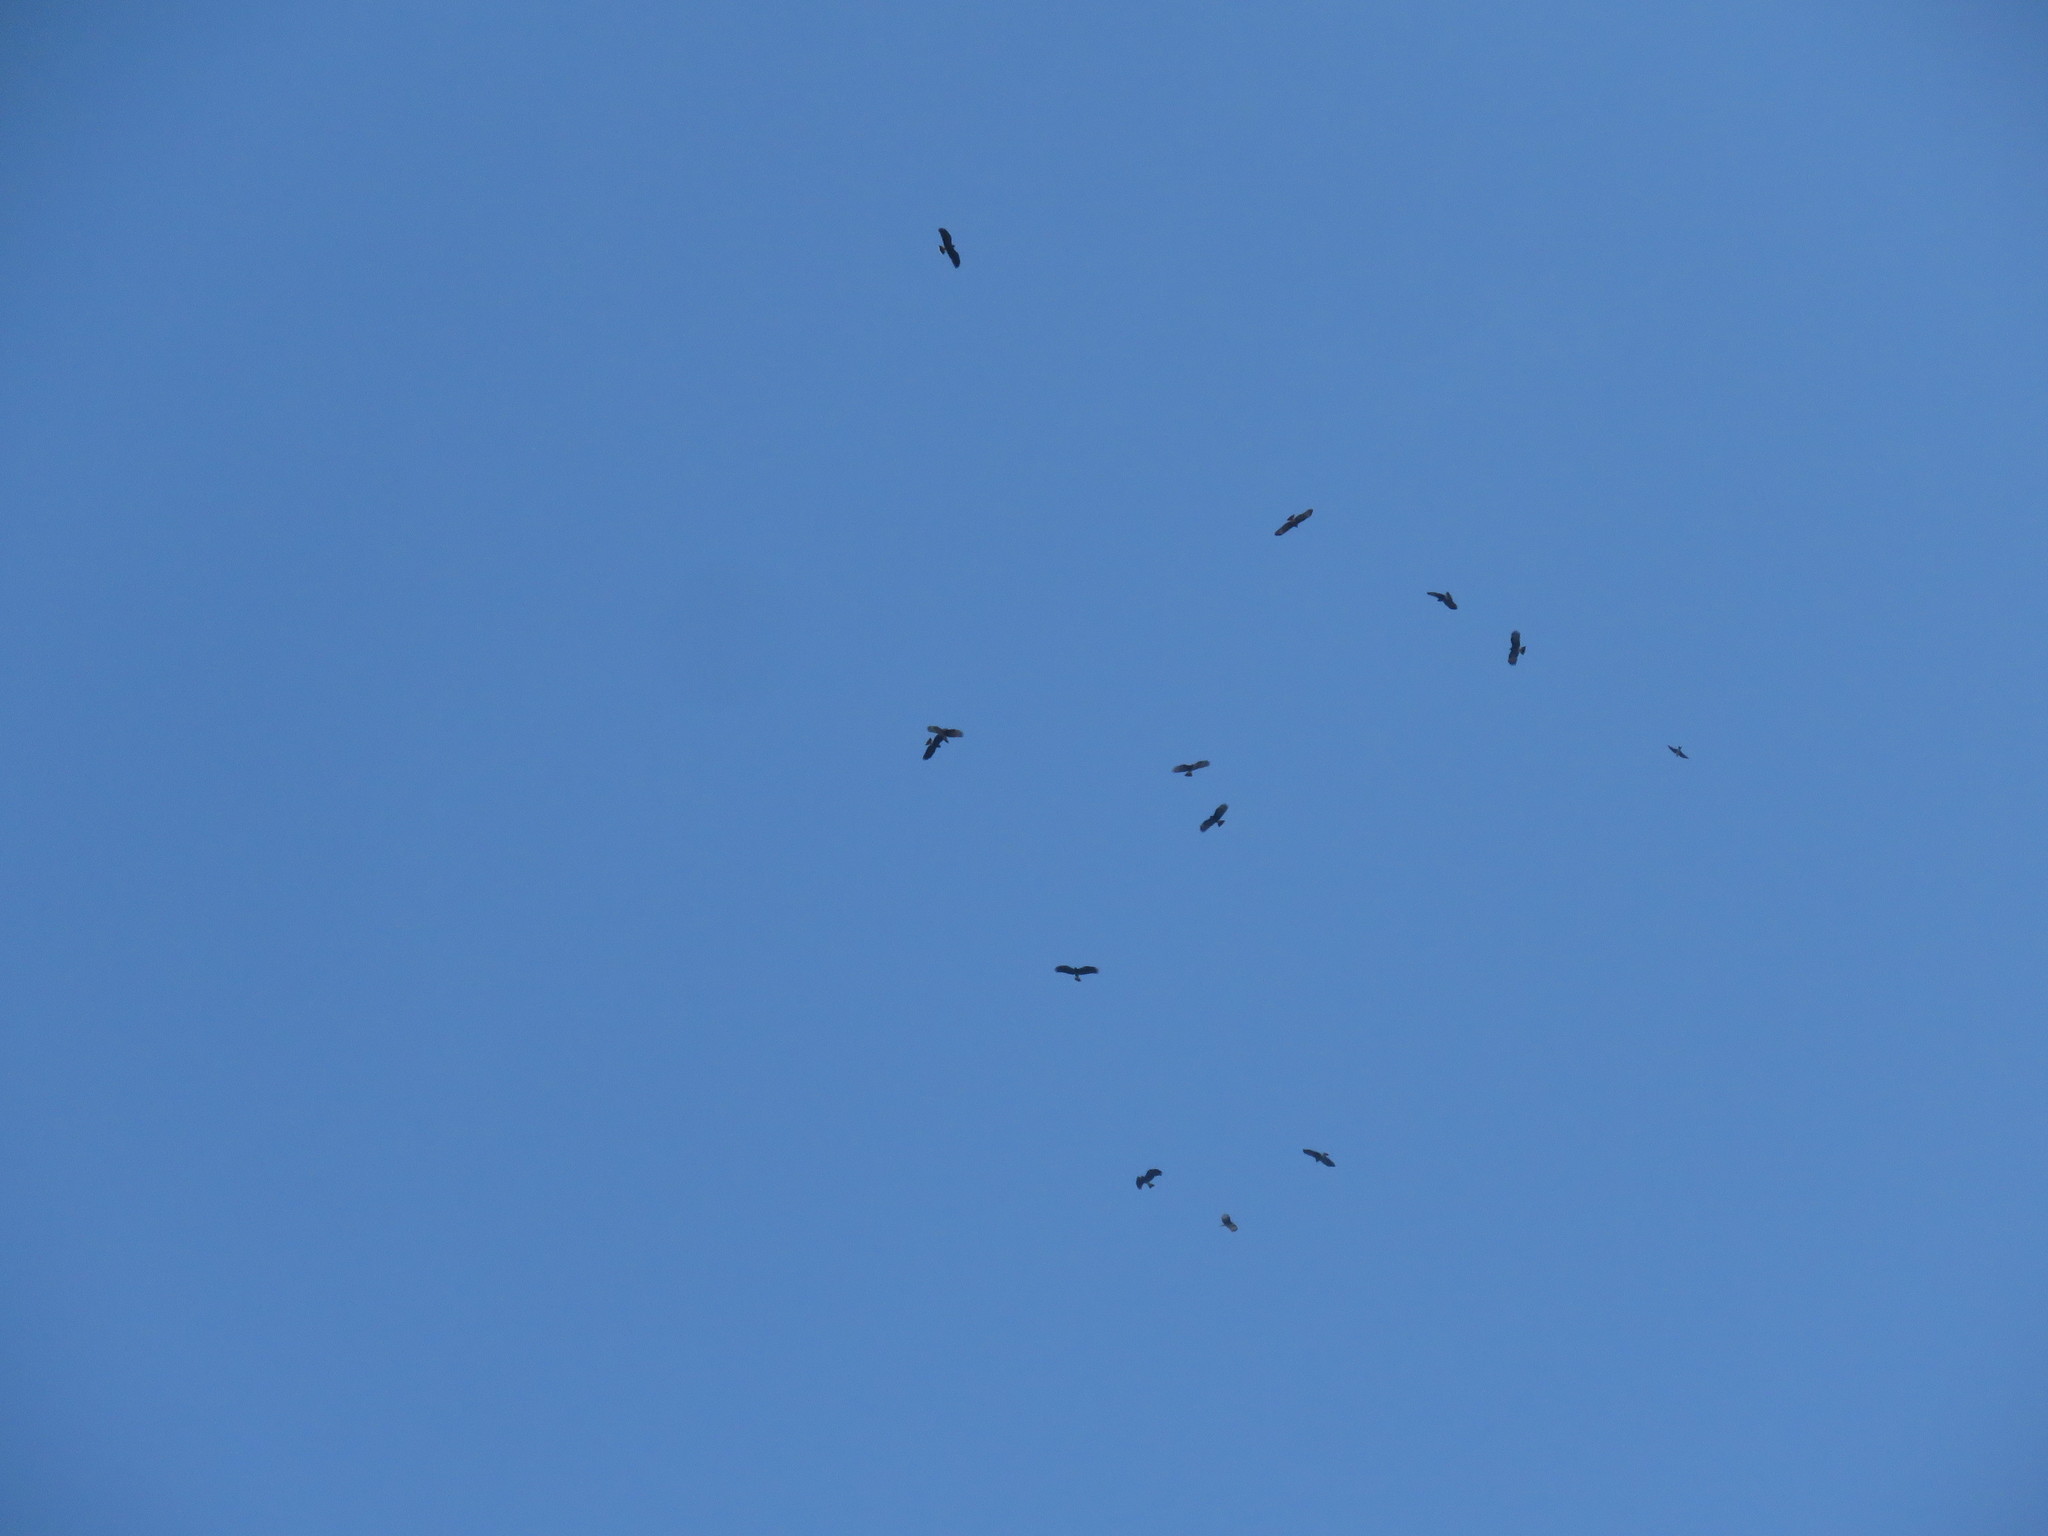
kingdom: Animalia
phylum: Chordata
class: Aves
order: Accipitriformes
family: Accipitridae
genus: Rostrhamus
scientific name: Rostrhamus sociabilis
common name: Snail kite
